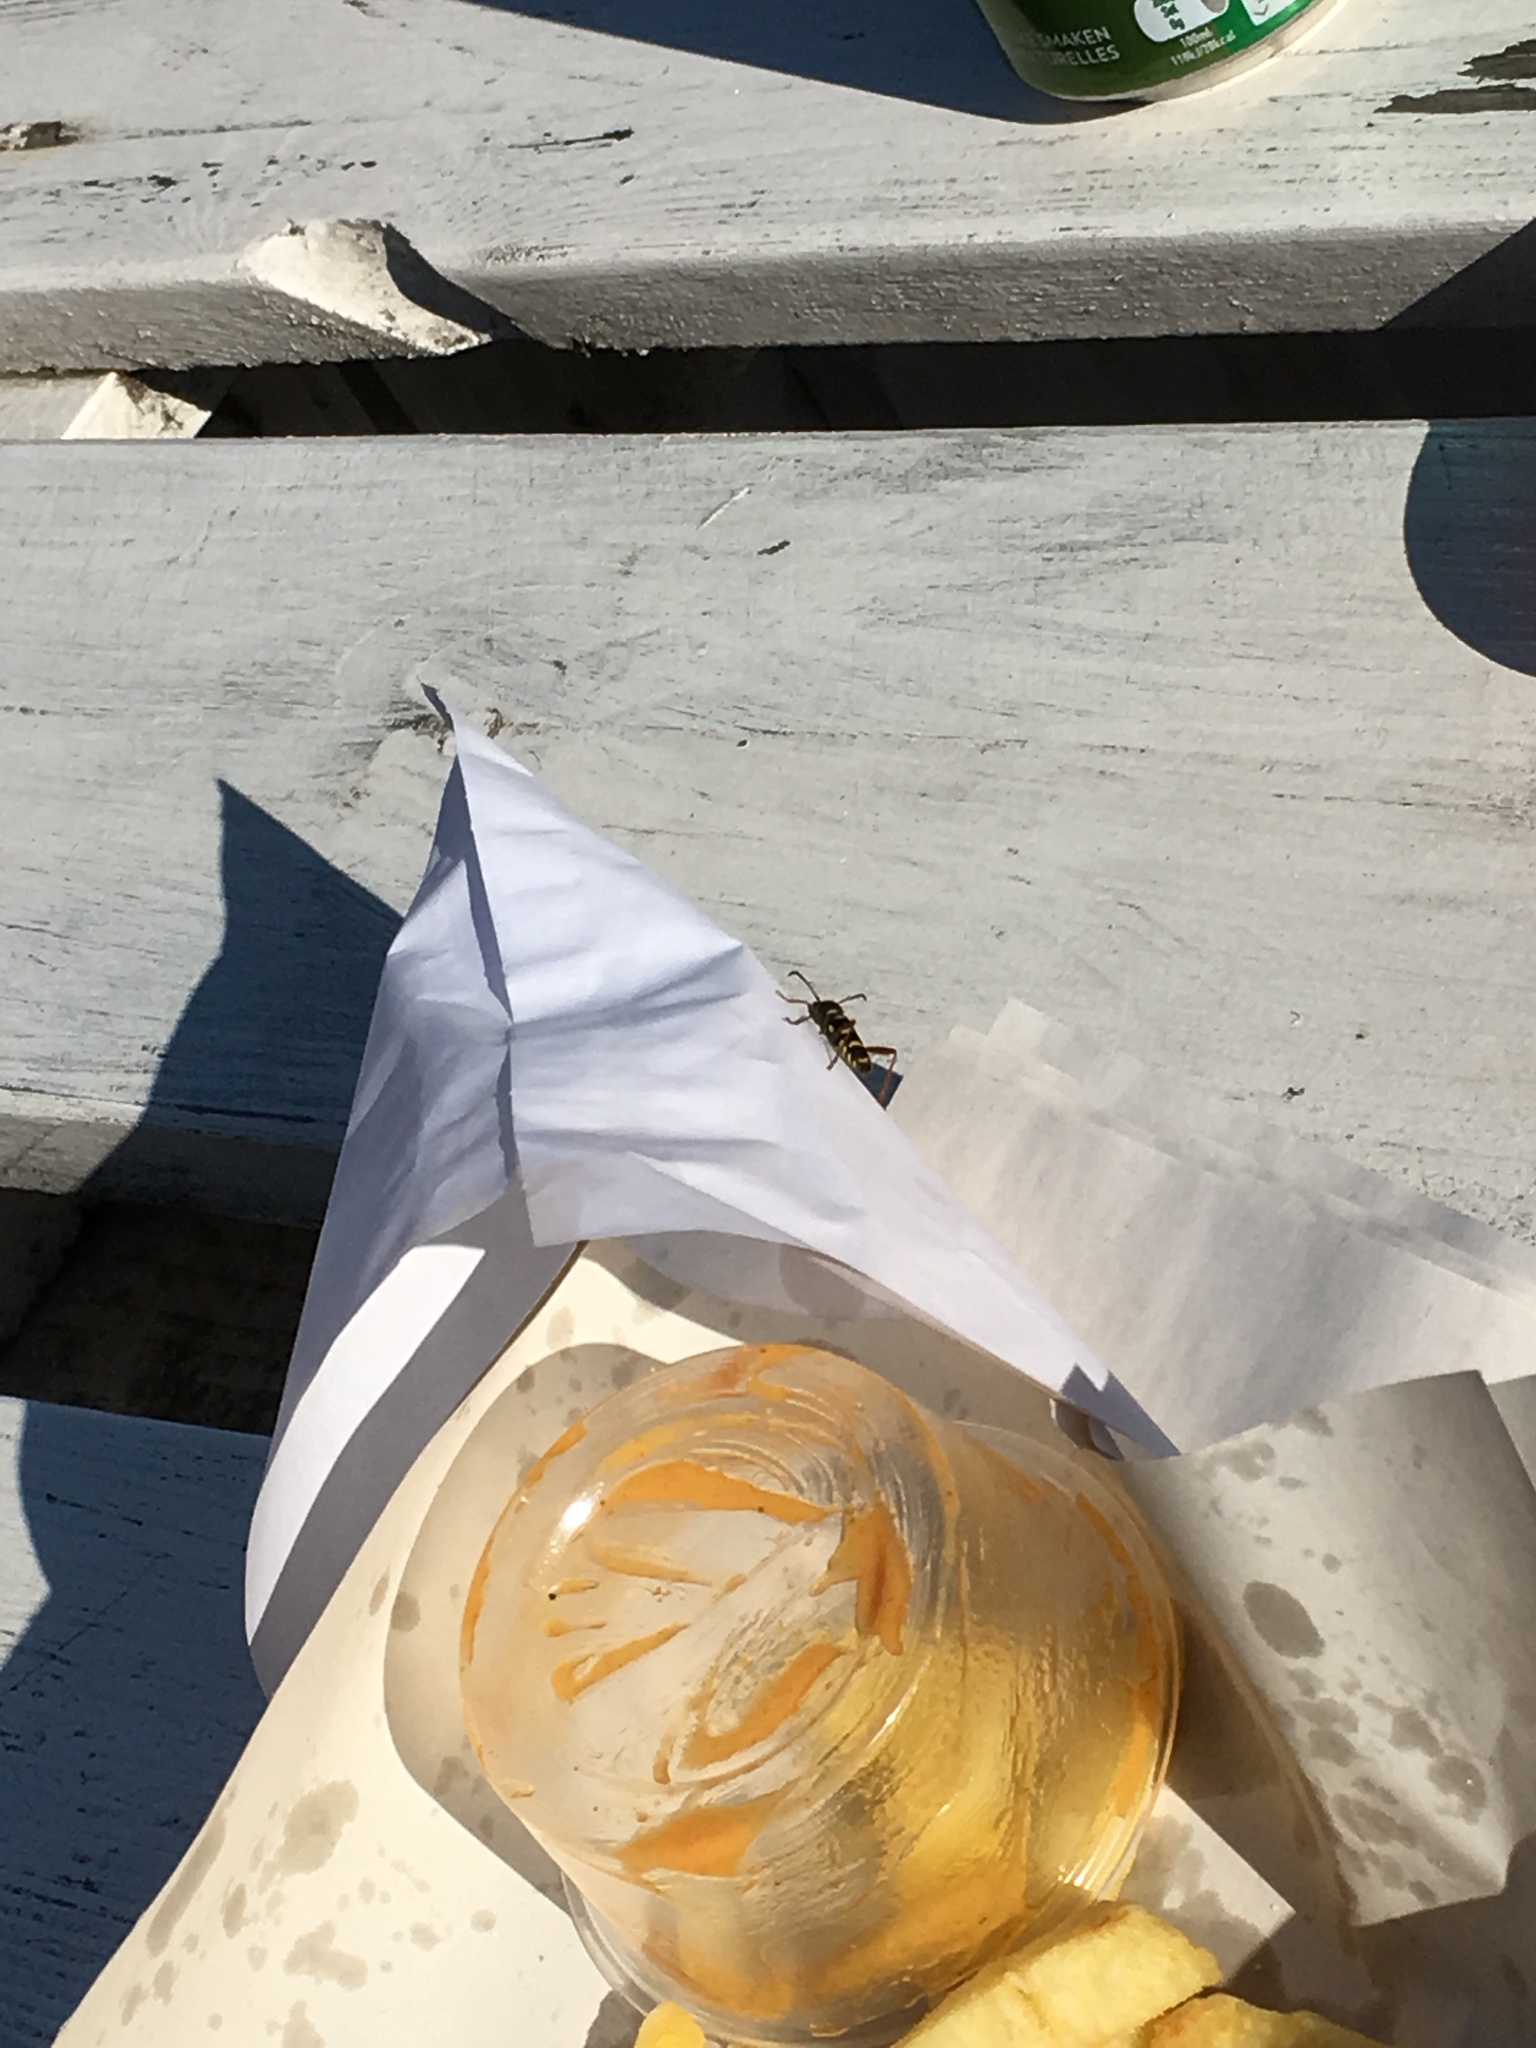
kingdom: Animalia
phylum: Arthropoda
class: Insecta
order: Coleoptera
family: Cerambycidae
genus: Clytus
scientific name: Clytus arietis
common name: Wasp beetle
